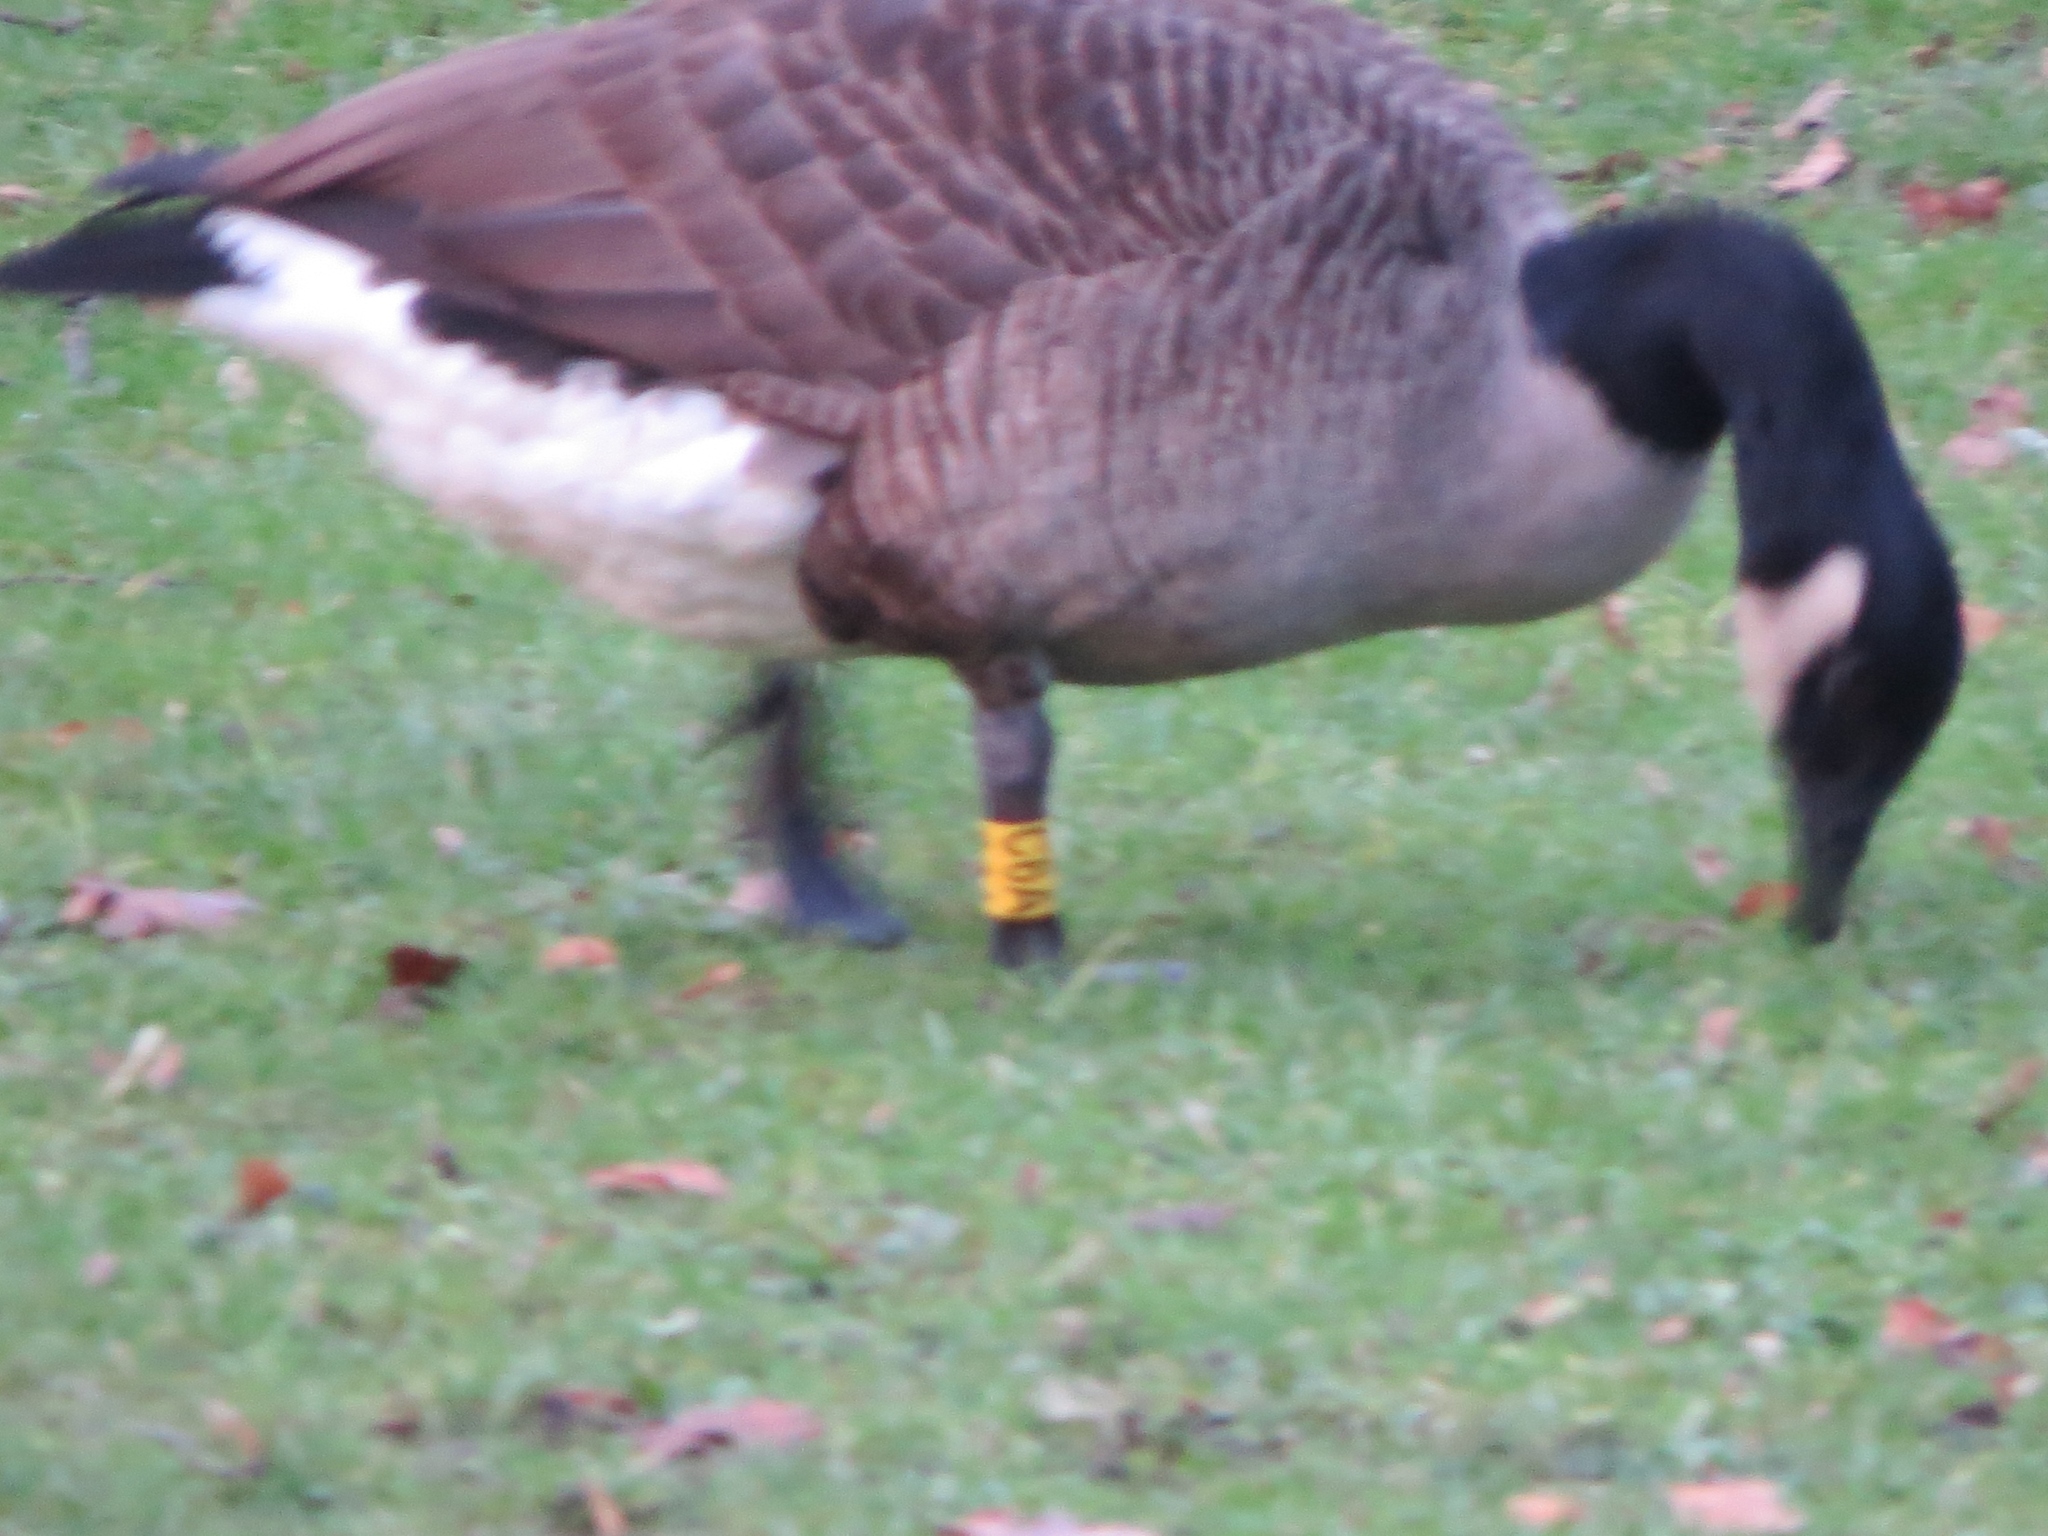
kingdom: Animalia
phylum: Chordata
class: Aves
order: Anseriformes
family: Anatidae
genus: Branta
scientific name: Branta canadensis
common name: Canada goose
